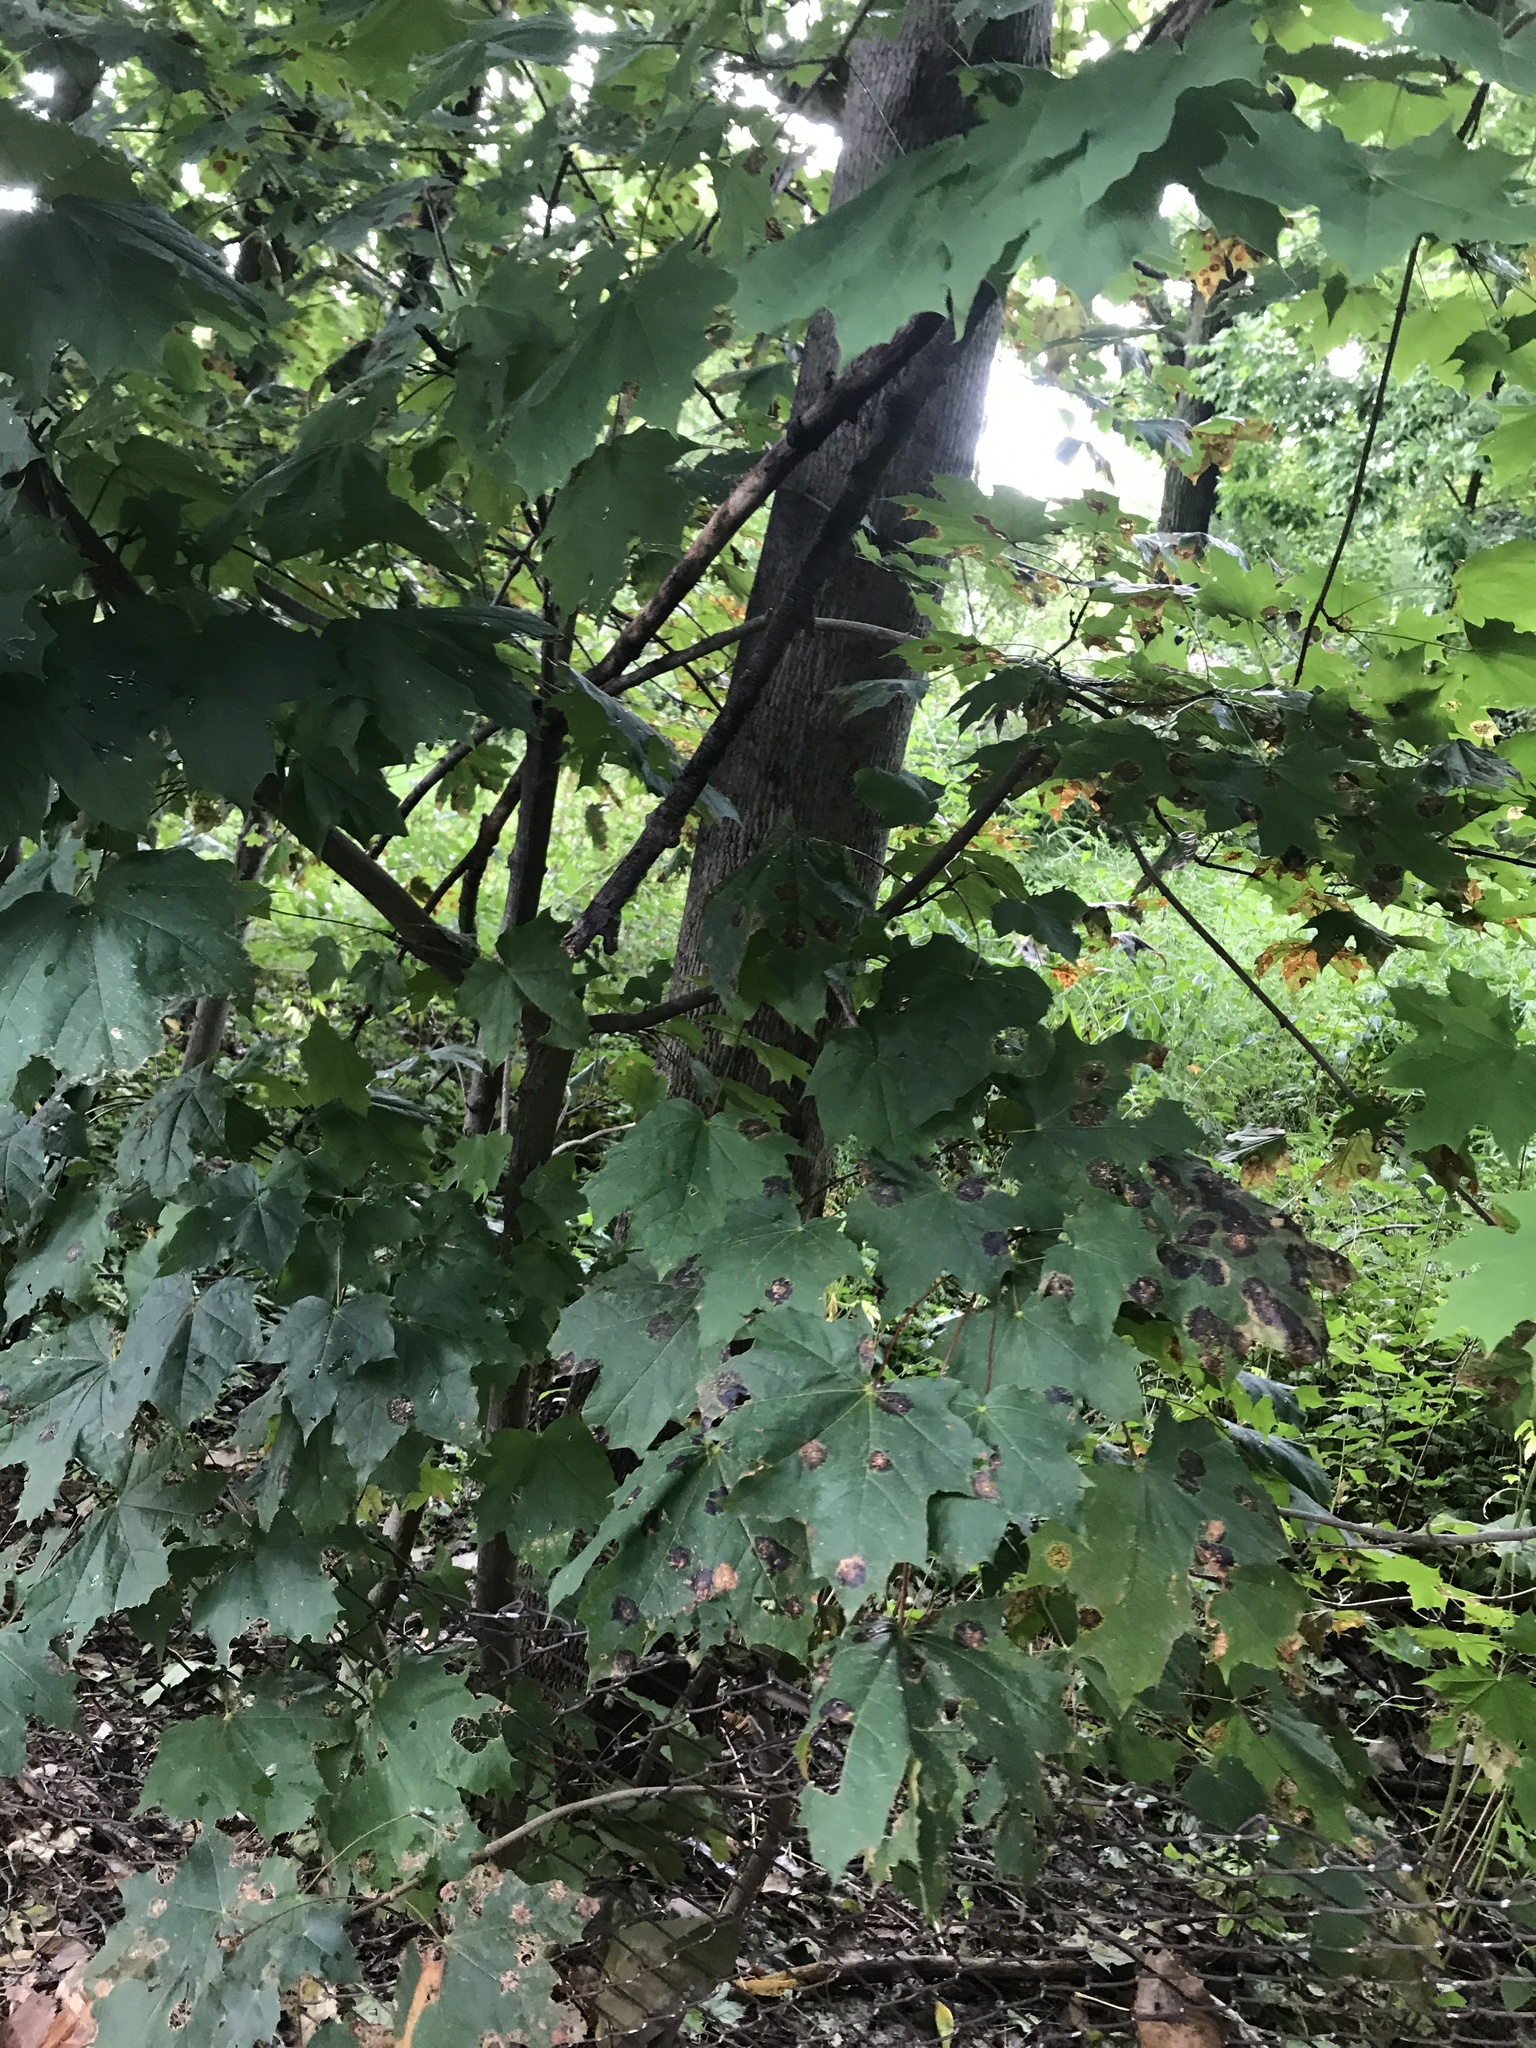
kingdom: Plantae
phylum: Tracheophyta
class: Magnoliopsida
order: Sapindales
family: Sapindaceae
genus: Acer
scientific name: Acer platanoides
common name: Norway maple
